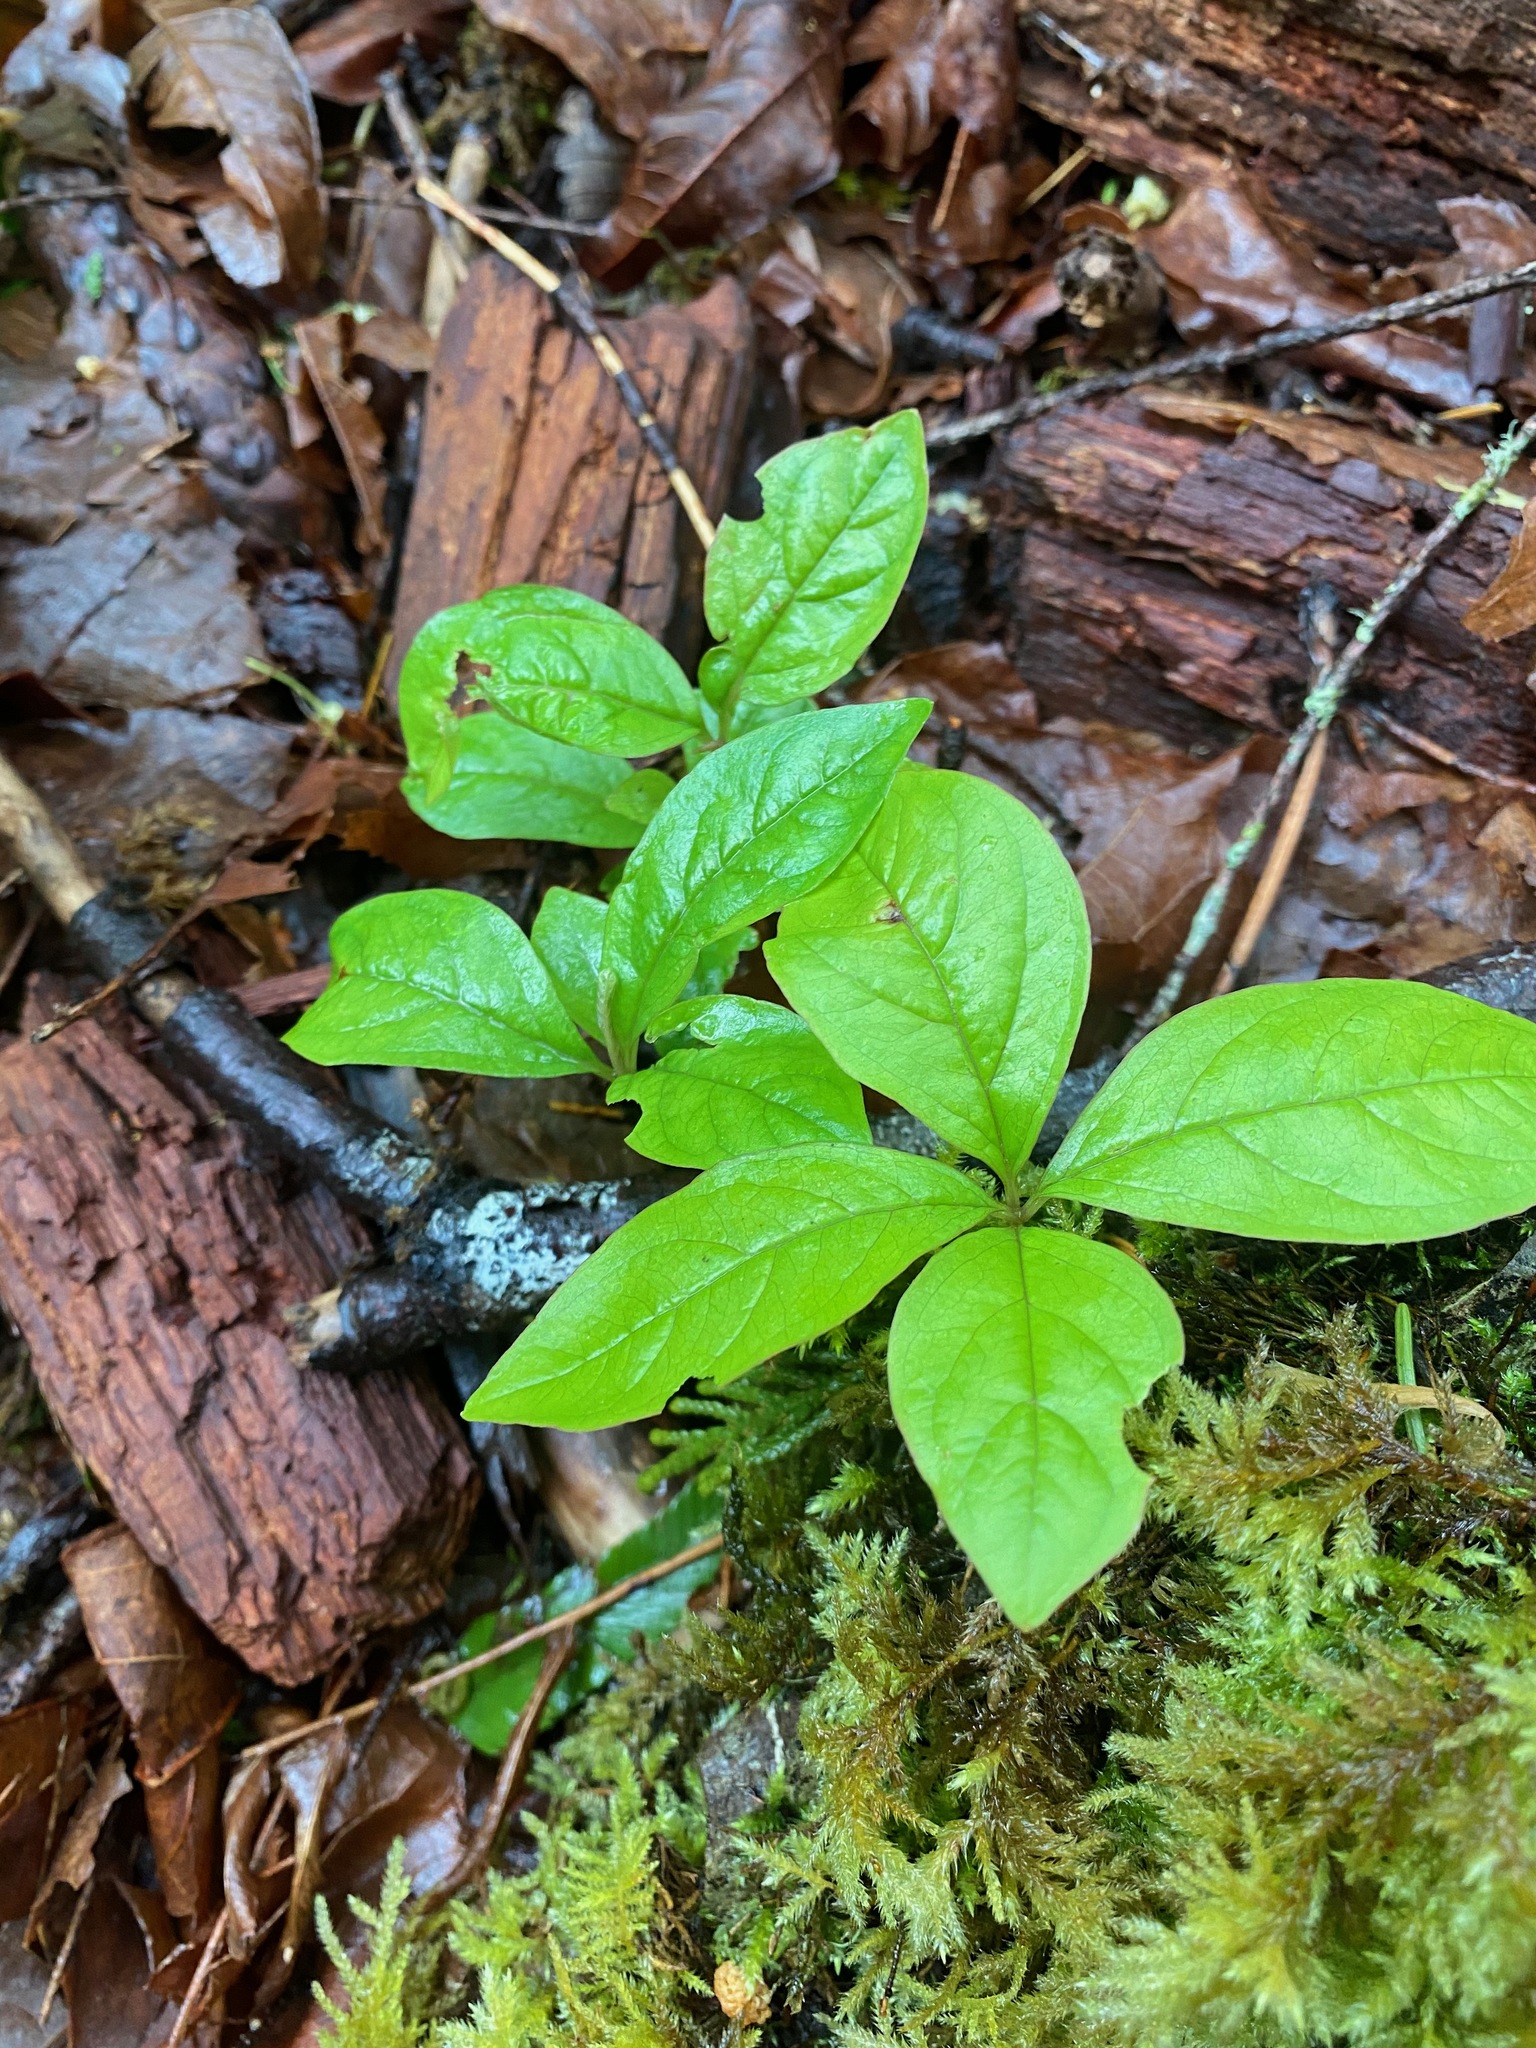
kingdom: Plantae
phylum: Tracheophyta
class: Magnoliopsida
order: Ericales
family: Primulaceae
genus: Lysimachia
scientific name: Lysimachia latifolia
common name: Pacific starflower
